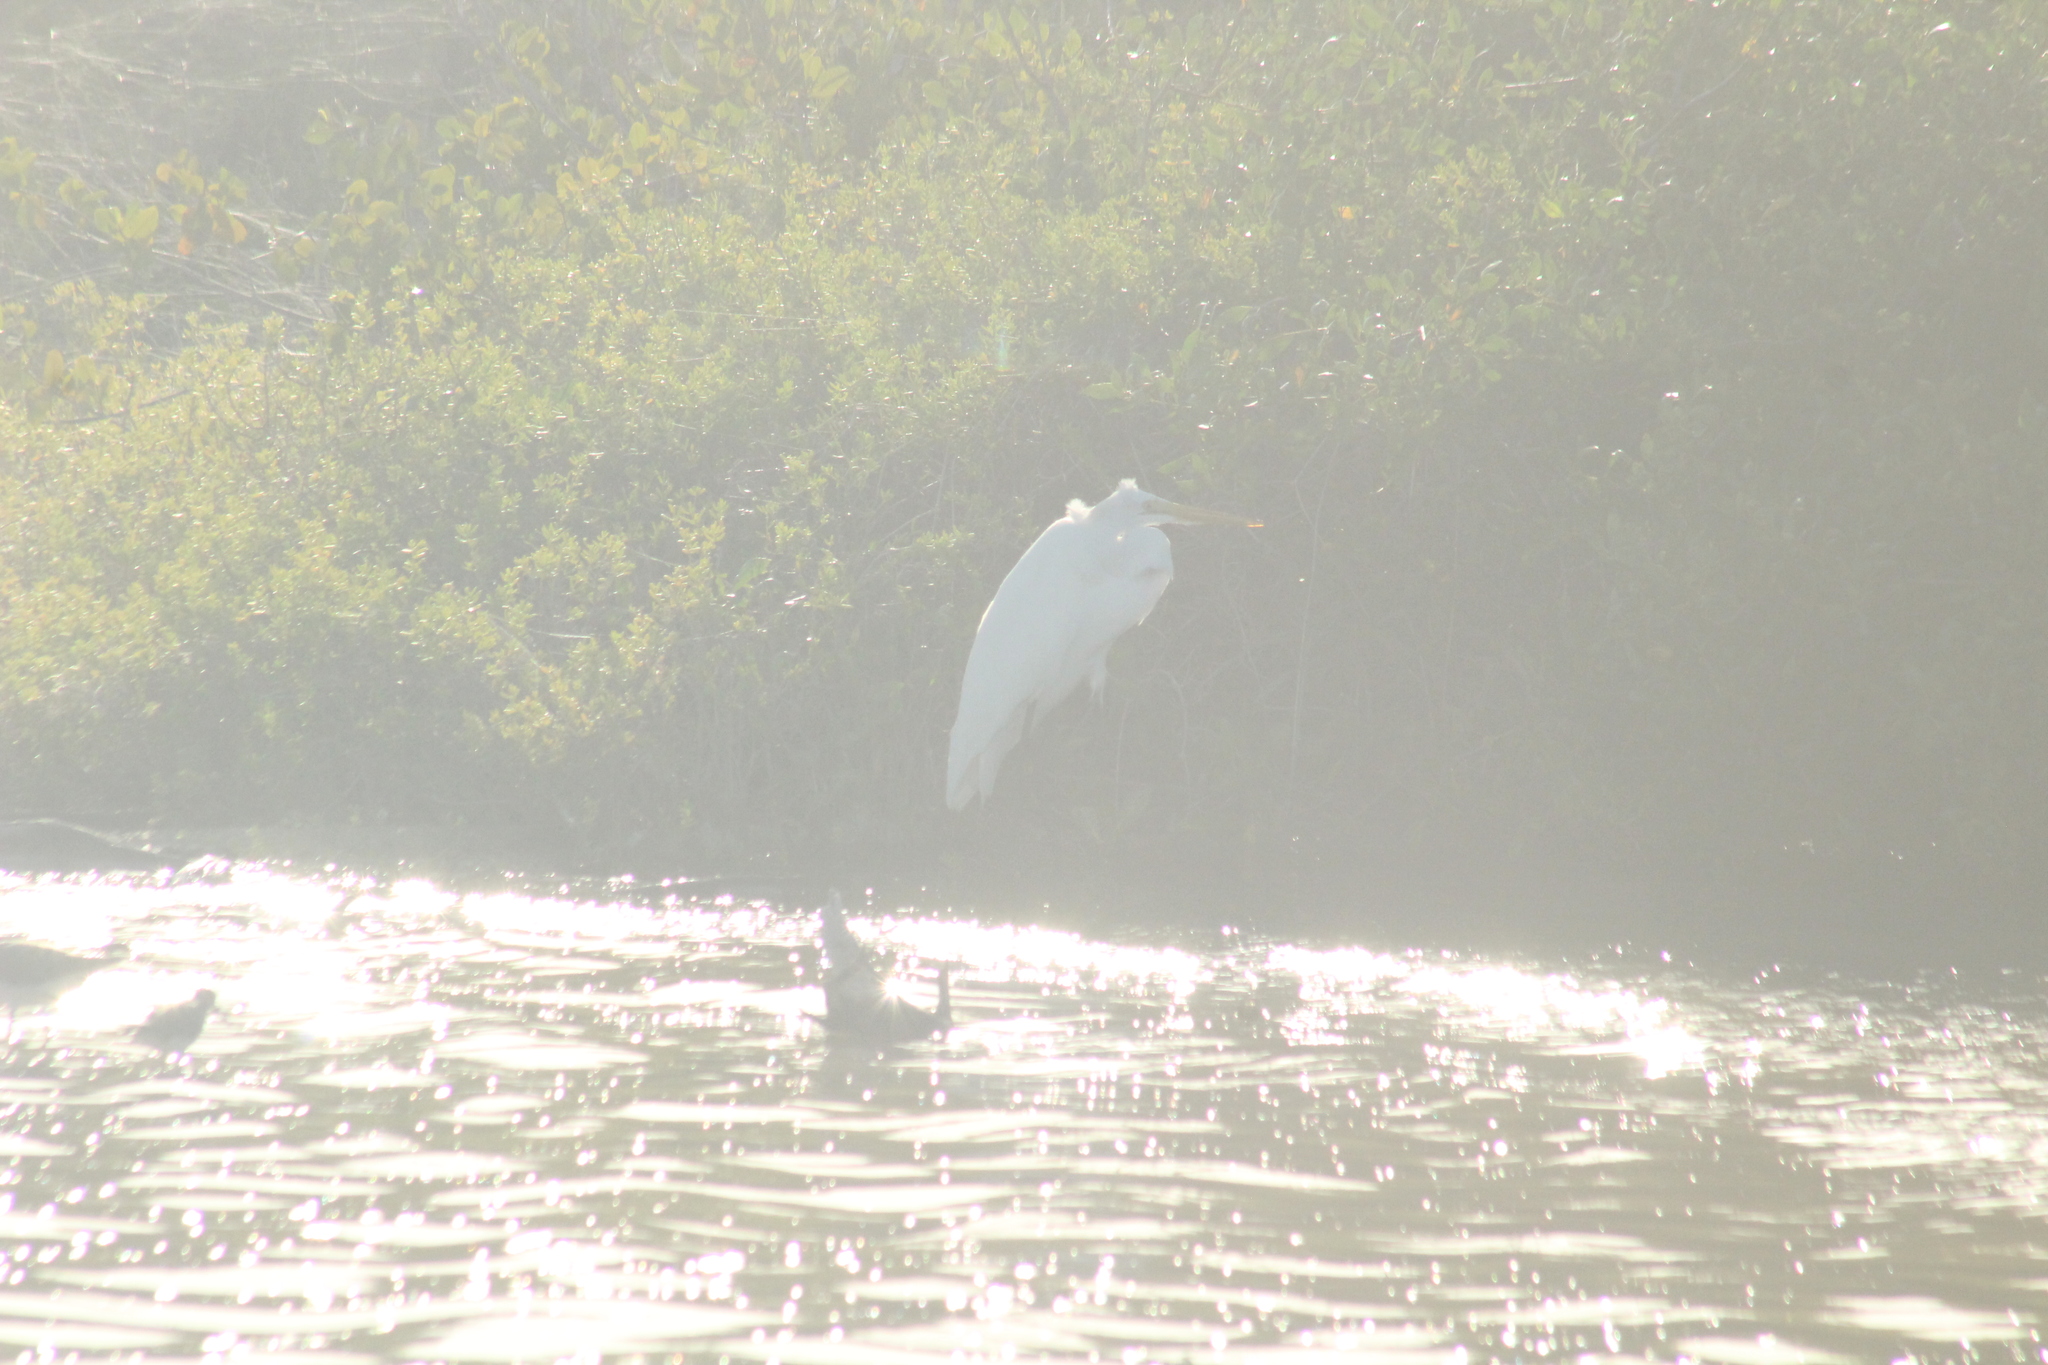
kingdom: Animalia
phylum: Chordata
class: Aves
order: Pelecaniformes
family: Ardeidae
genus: Ardea
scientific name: Ardea alba
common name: Great egret
